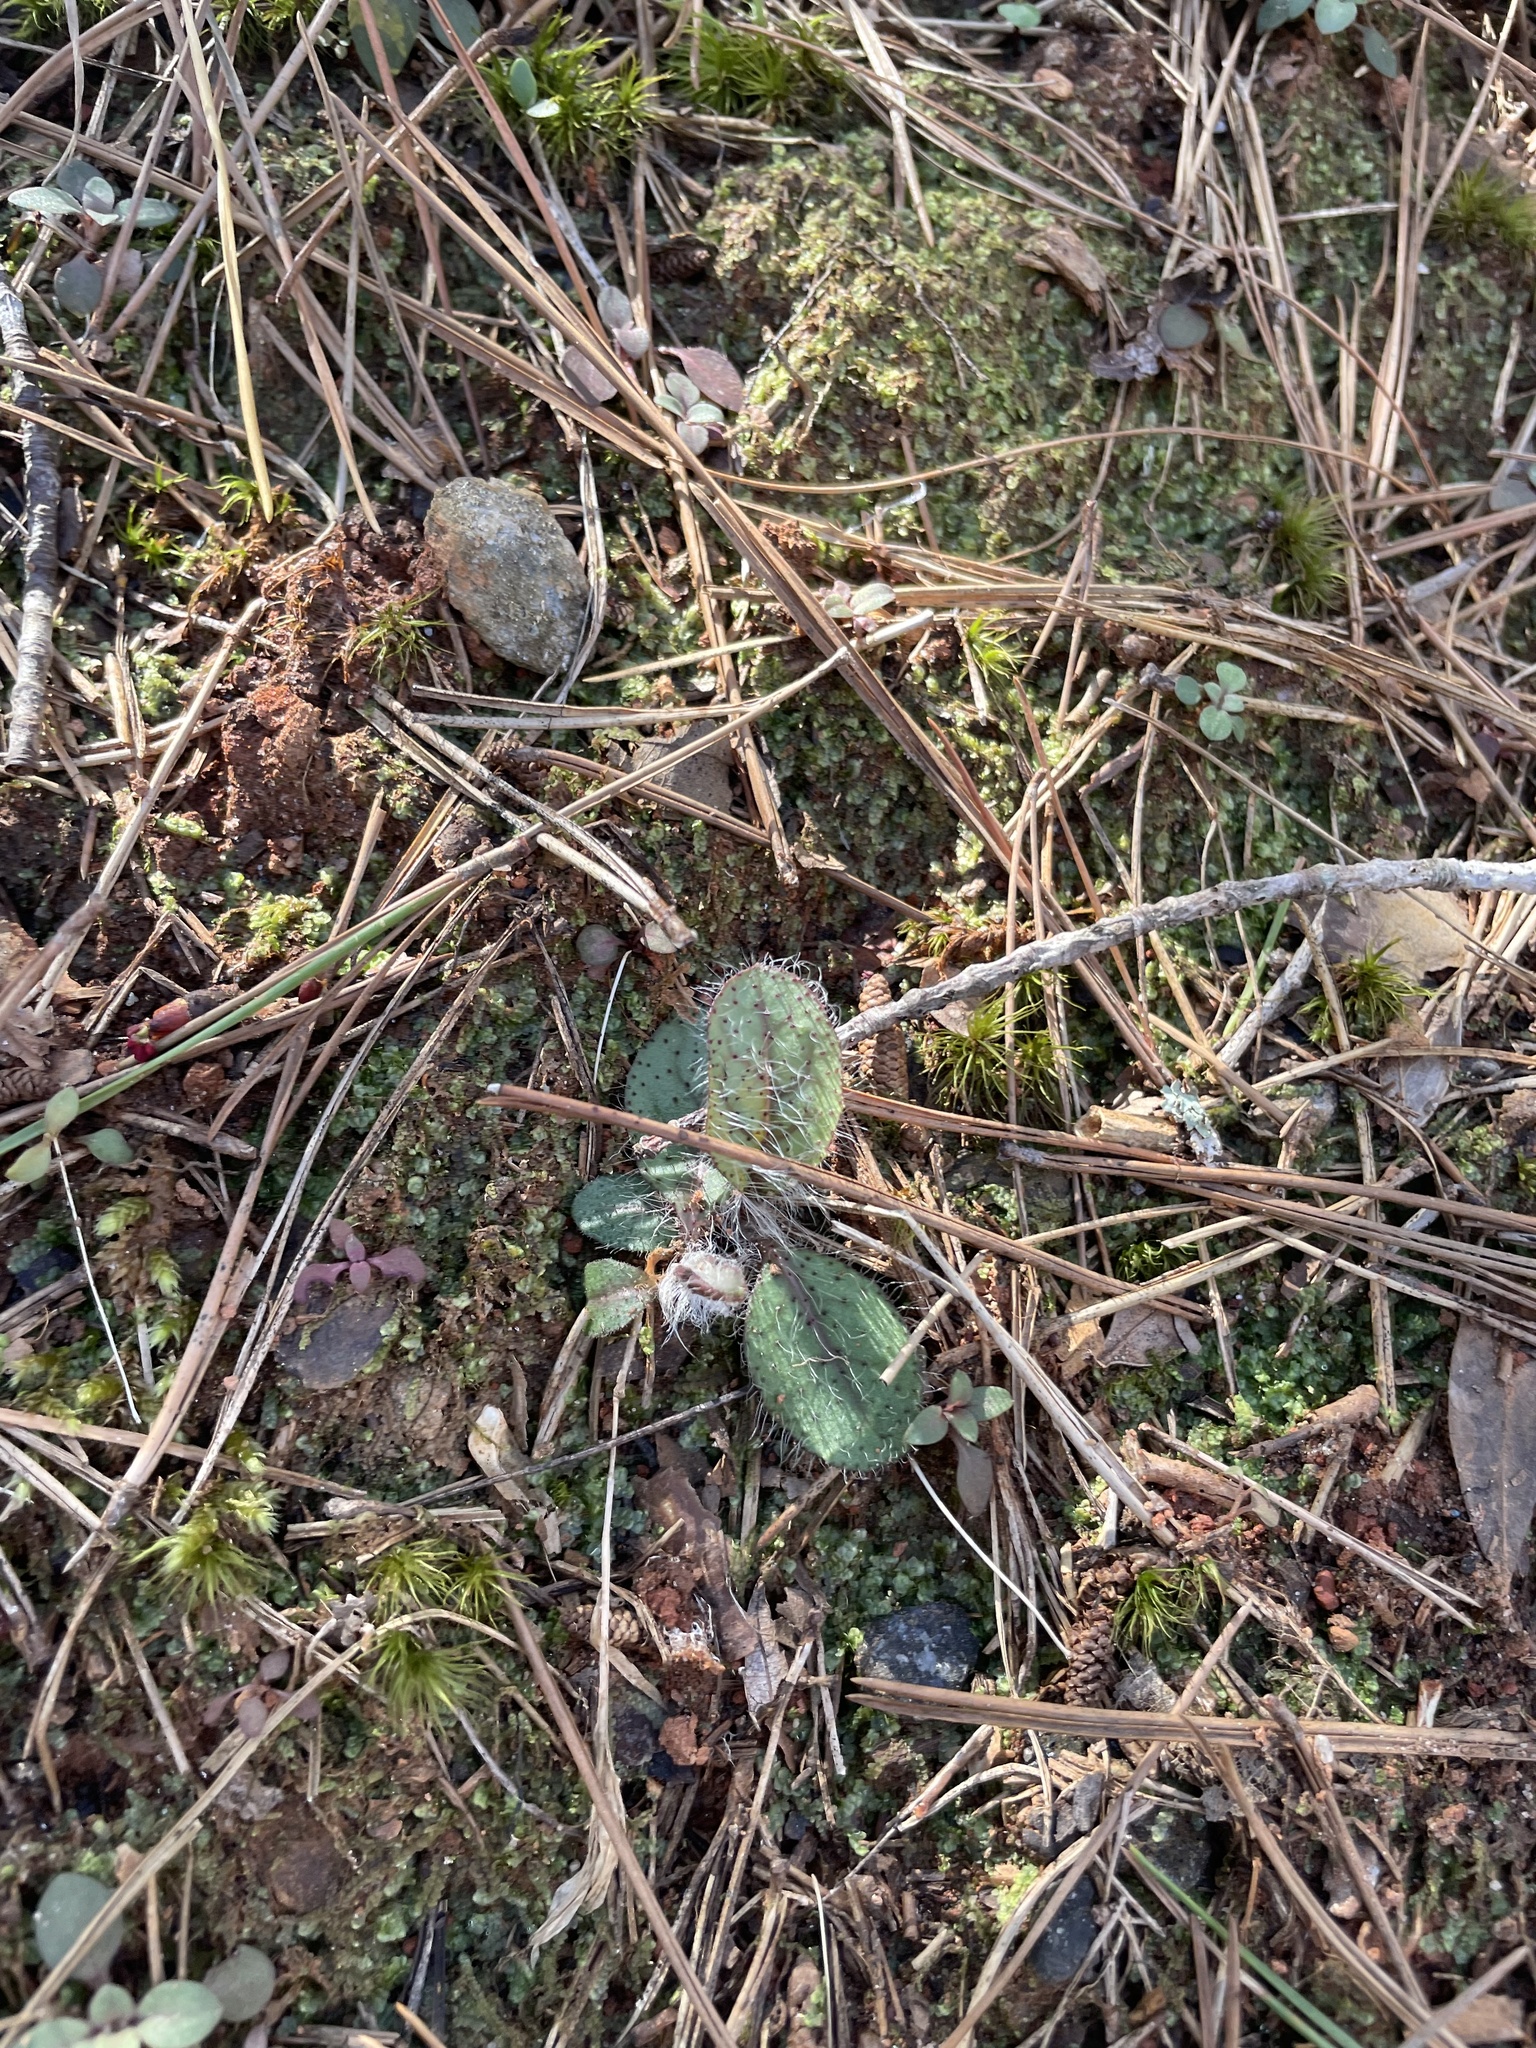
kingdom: Plantae
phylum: Tracheophyta
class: Magnoliopsida
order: Asterales
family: Asteraceae
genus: Hieracium
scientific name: Hieracium venosum
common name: Rattlesnake hawkweed
